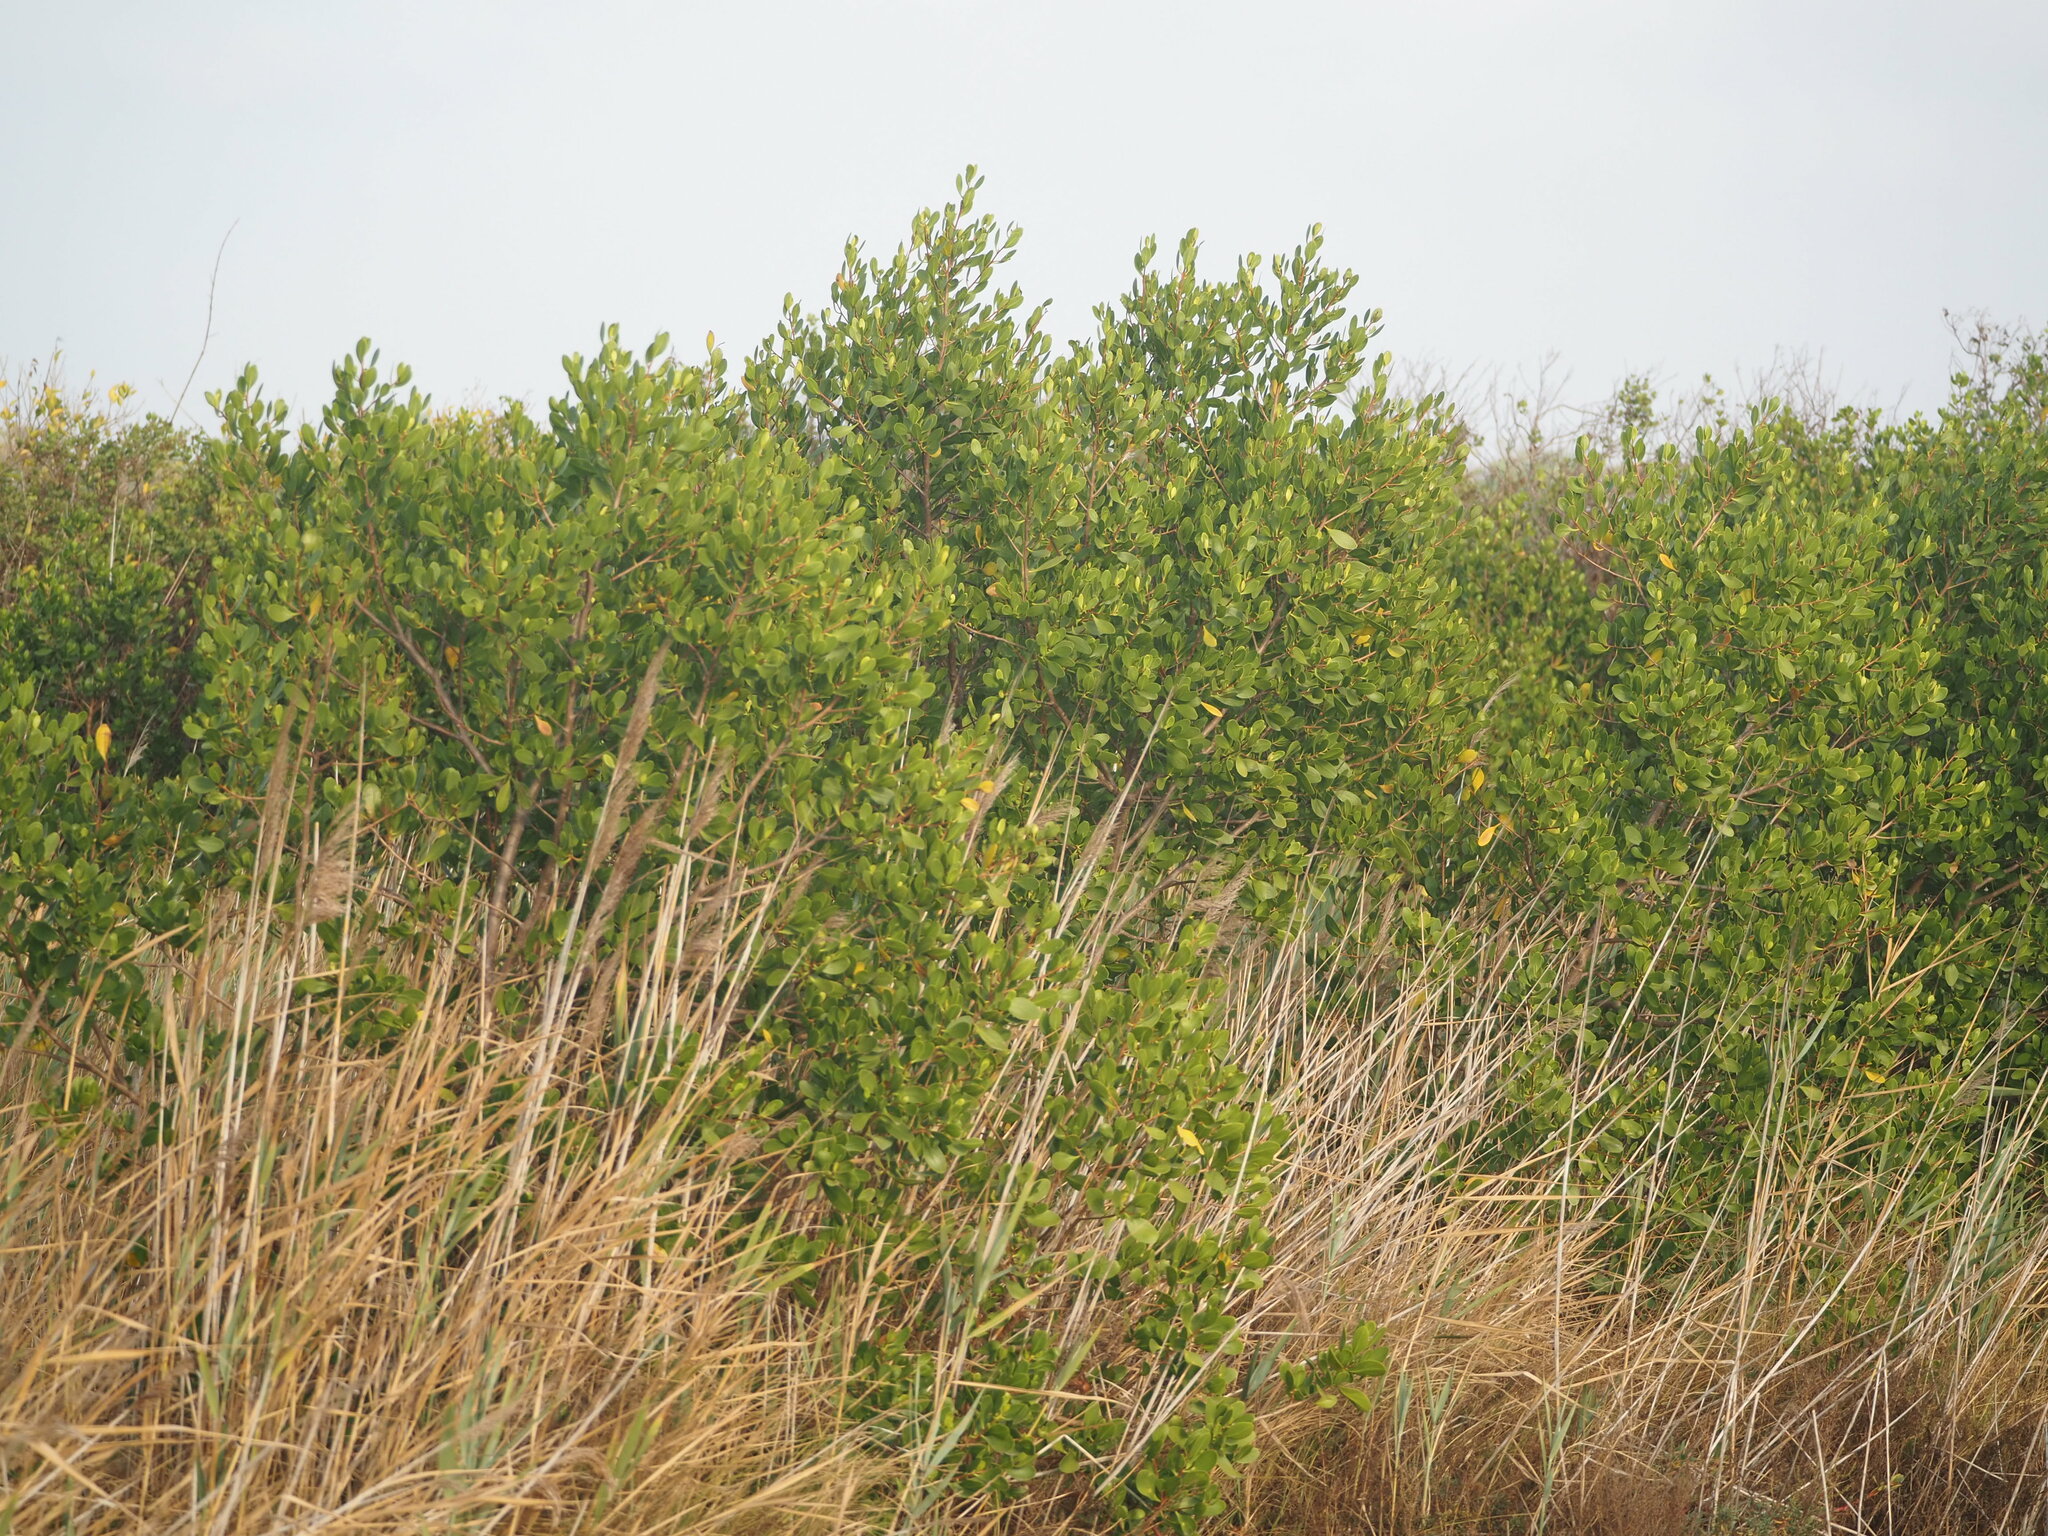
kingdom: Plantae
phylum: Tracheophyta
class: Magnoliopsida
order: Myrtales
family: Combretaceae
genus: Lumnitzera
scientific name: Lumnitzera racemosa
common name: White-flowered black mangrove
